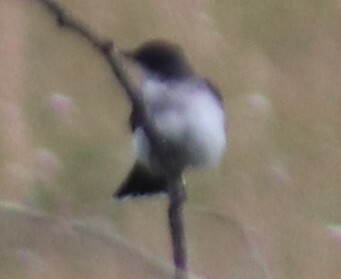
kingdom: Animalia
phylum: Chordata
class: Aves
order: Passeriformes
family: Tyrannidae
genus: Tyrannus
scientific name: Tyrannus tyrannus
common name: Eastern kingbird
